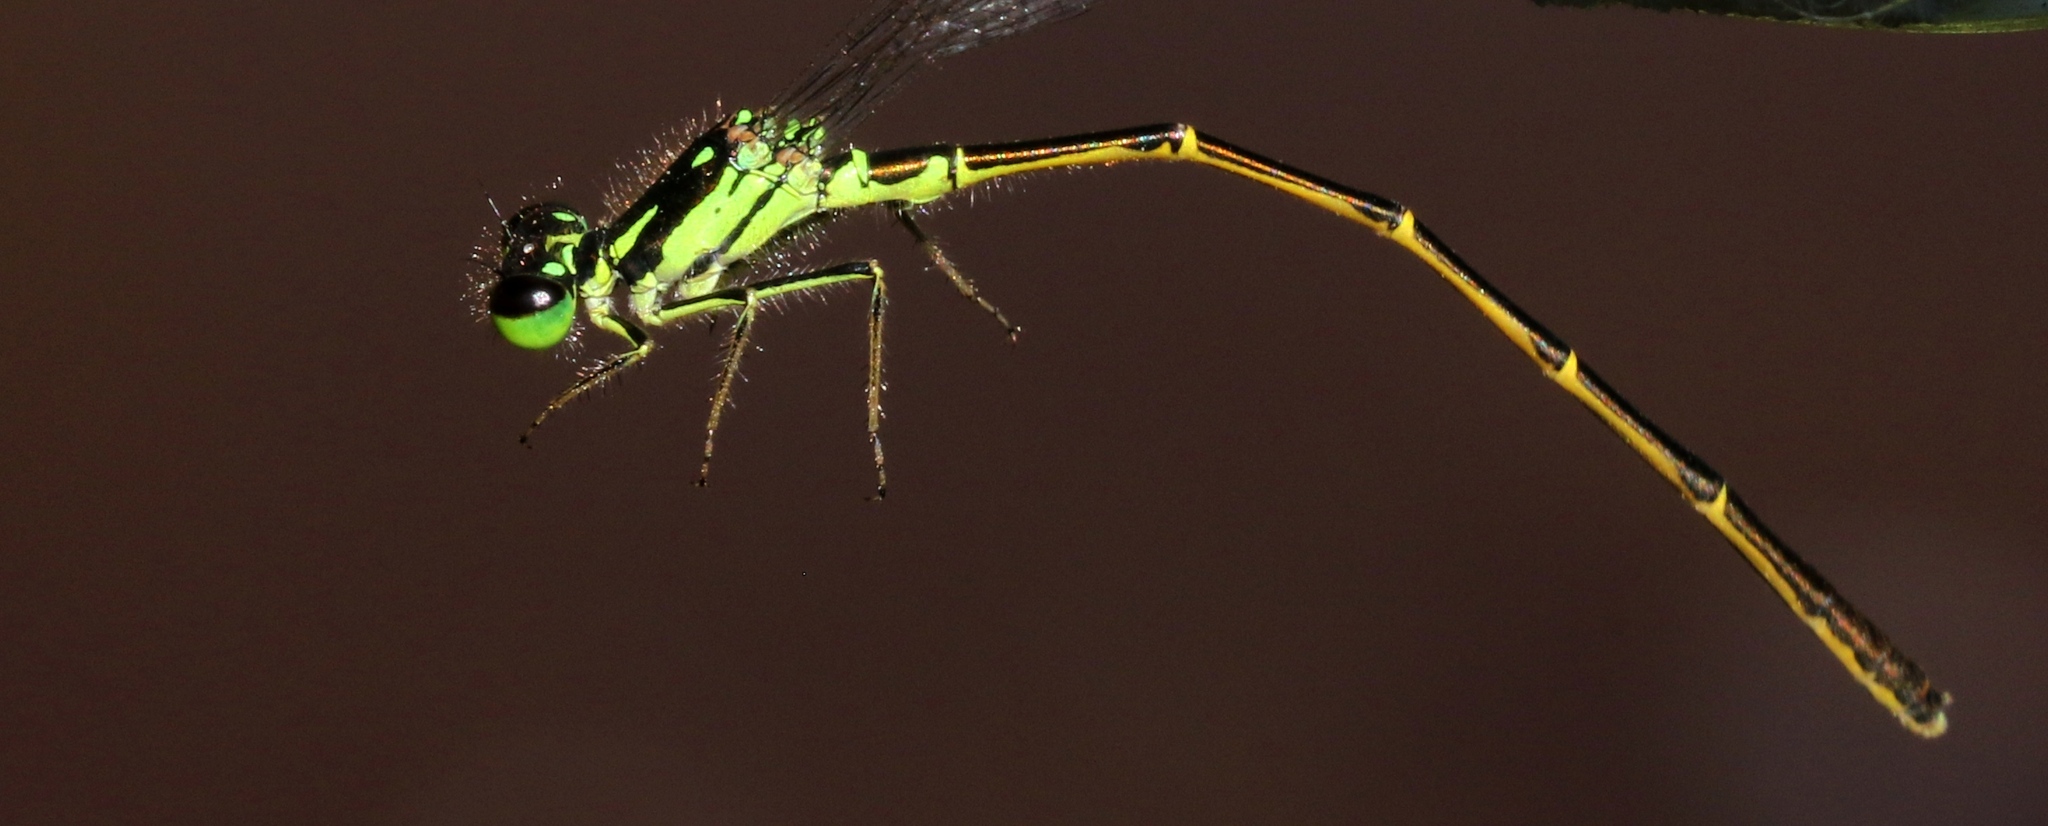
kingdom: Animalia
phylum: Arthropoda
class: Insecta
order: Odonata
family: Coenagrionidae
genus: Ischnura
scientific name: Ischnura posita
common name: Fragile forktail
